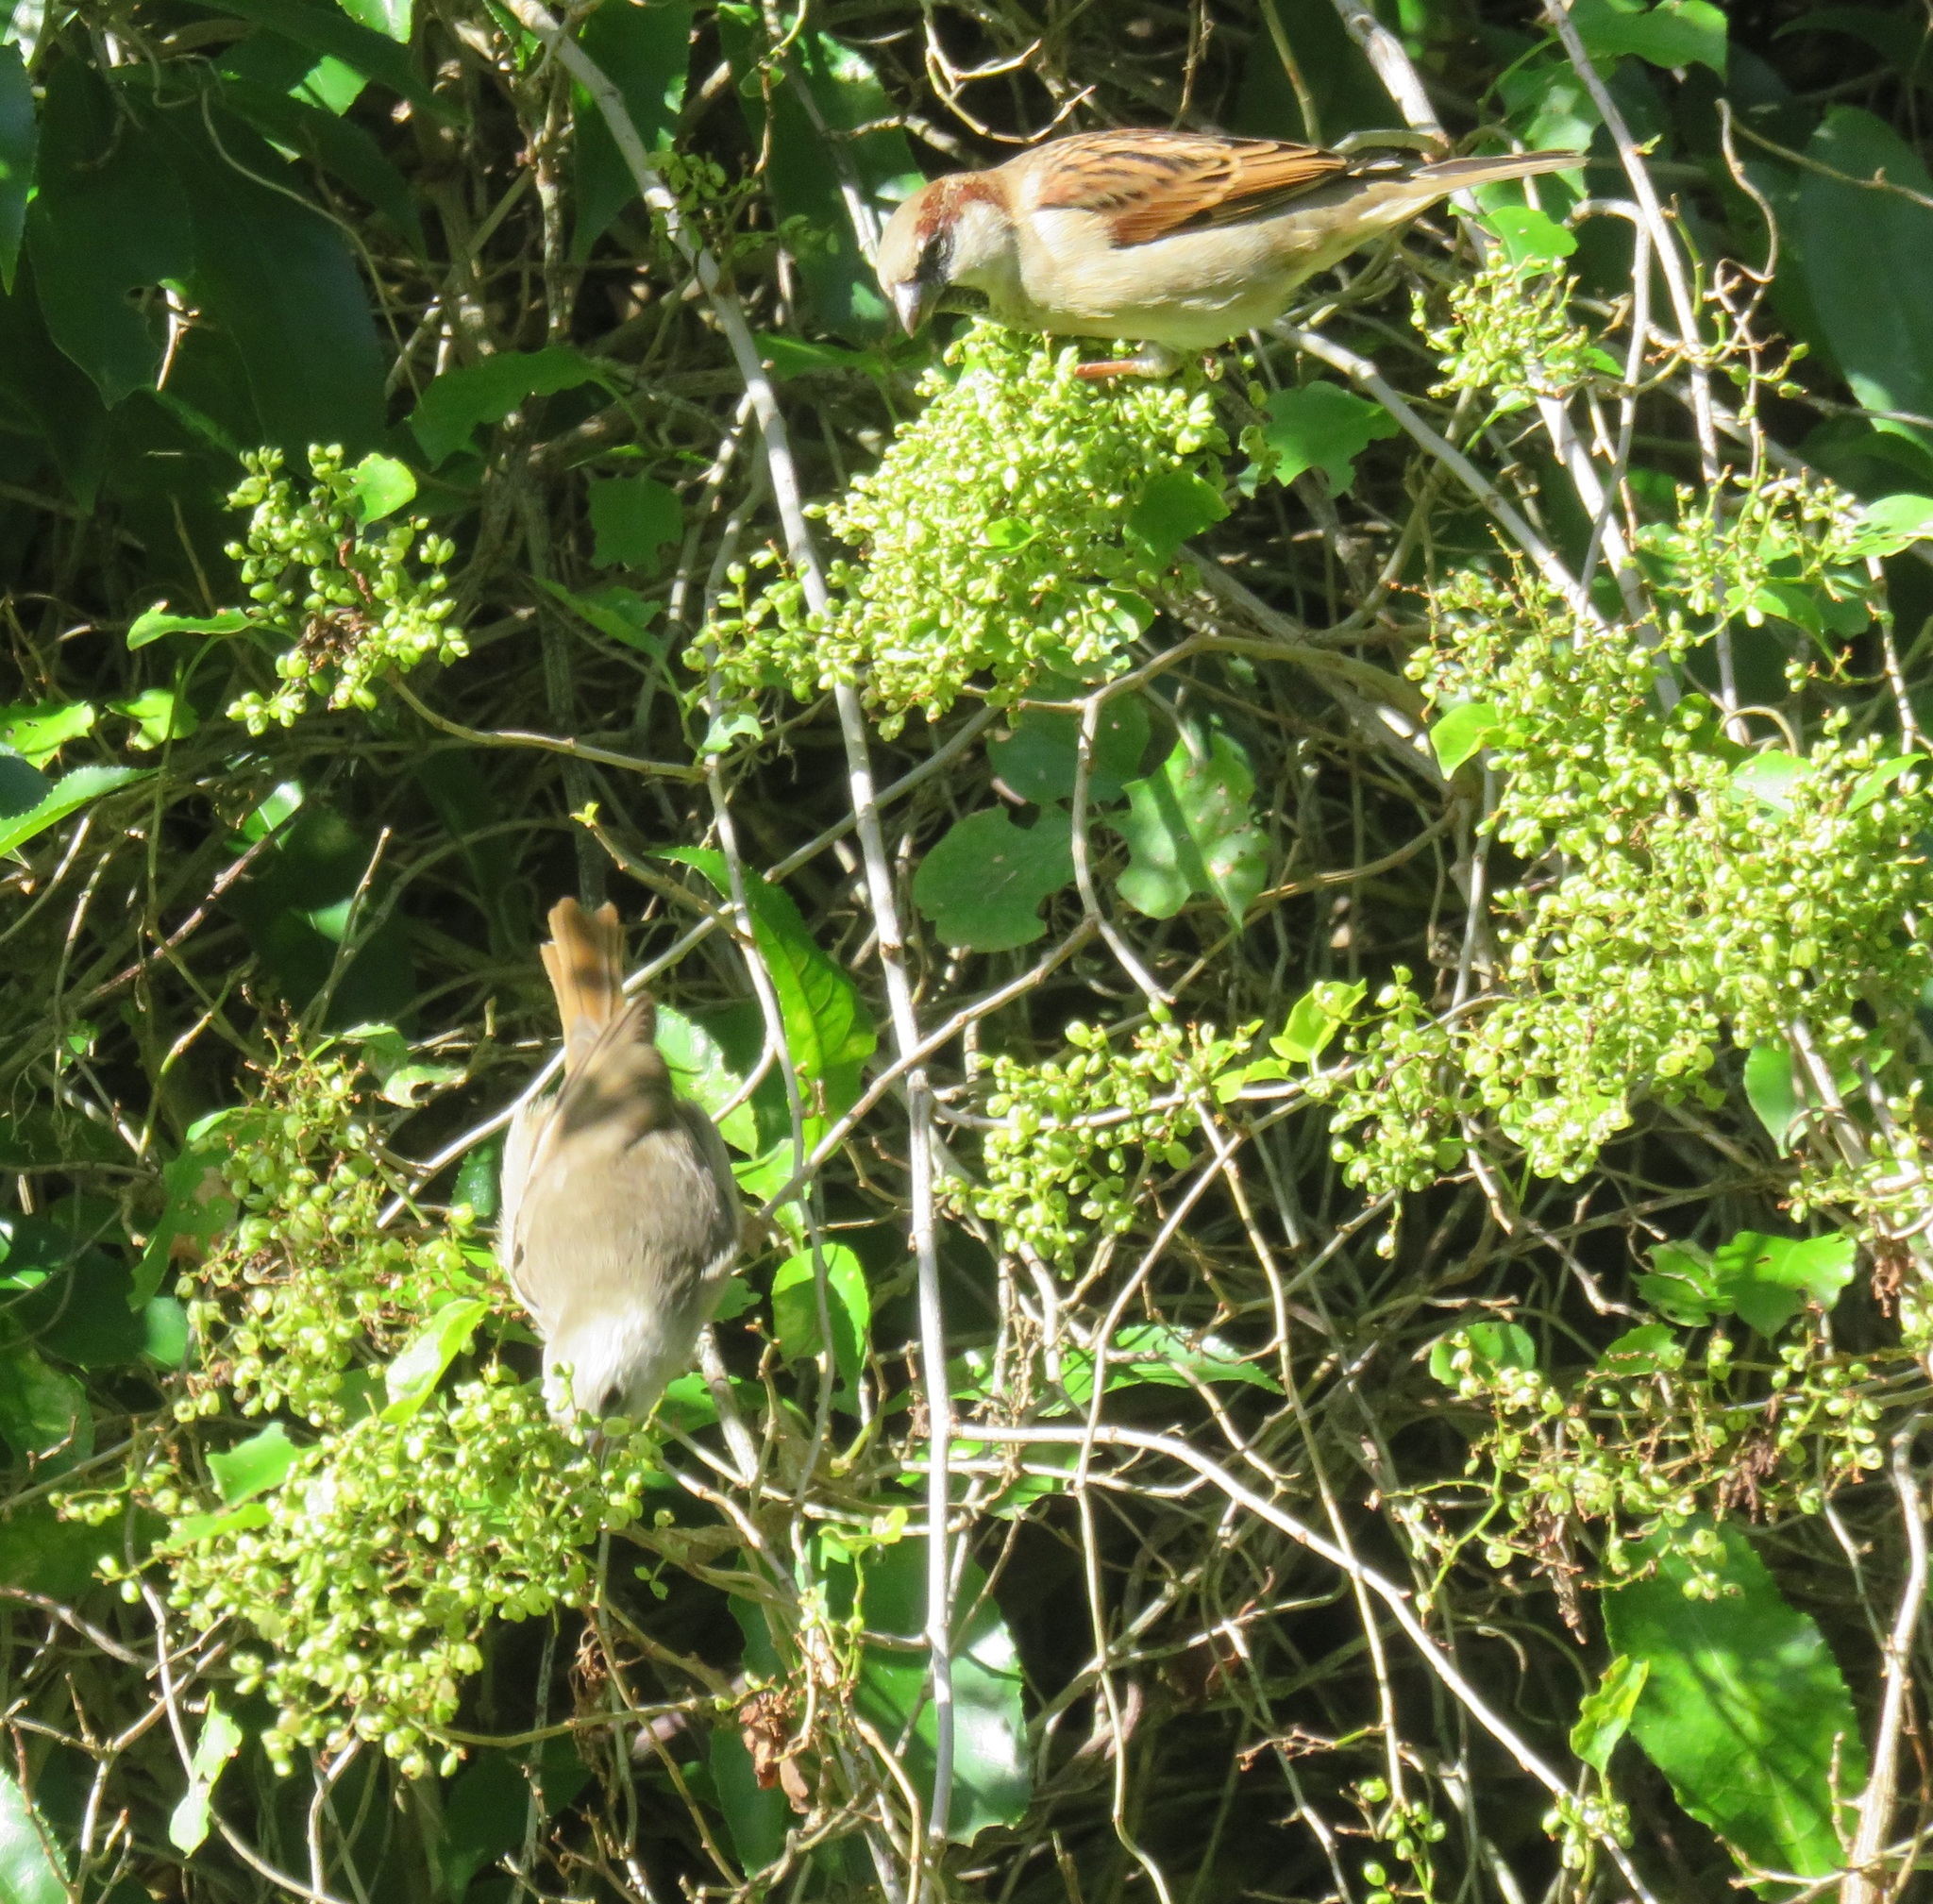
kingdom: Animalia
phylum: Chordata
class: Aves
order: Passeriformes
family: Acanthizidae
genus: Mohoua
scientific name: Mohoua albicilla
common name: Whitehead
